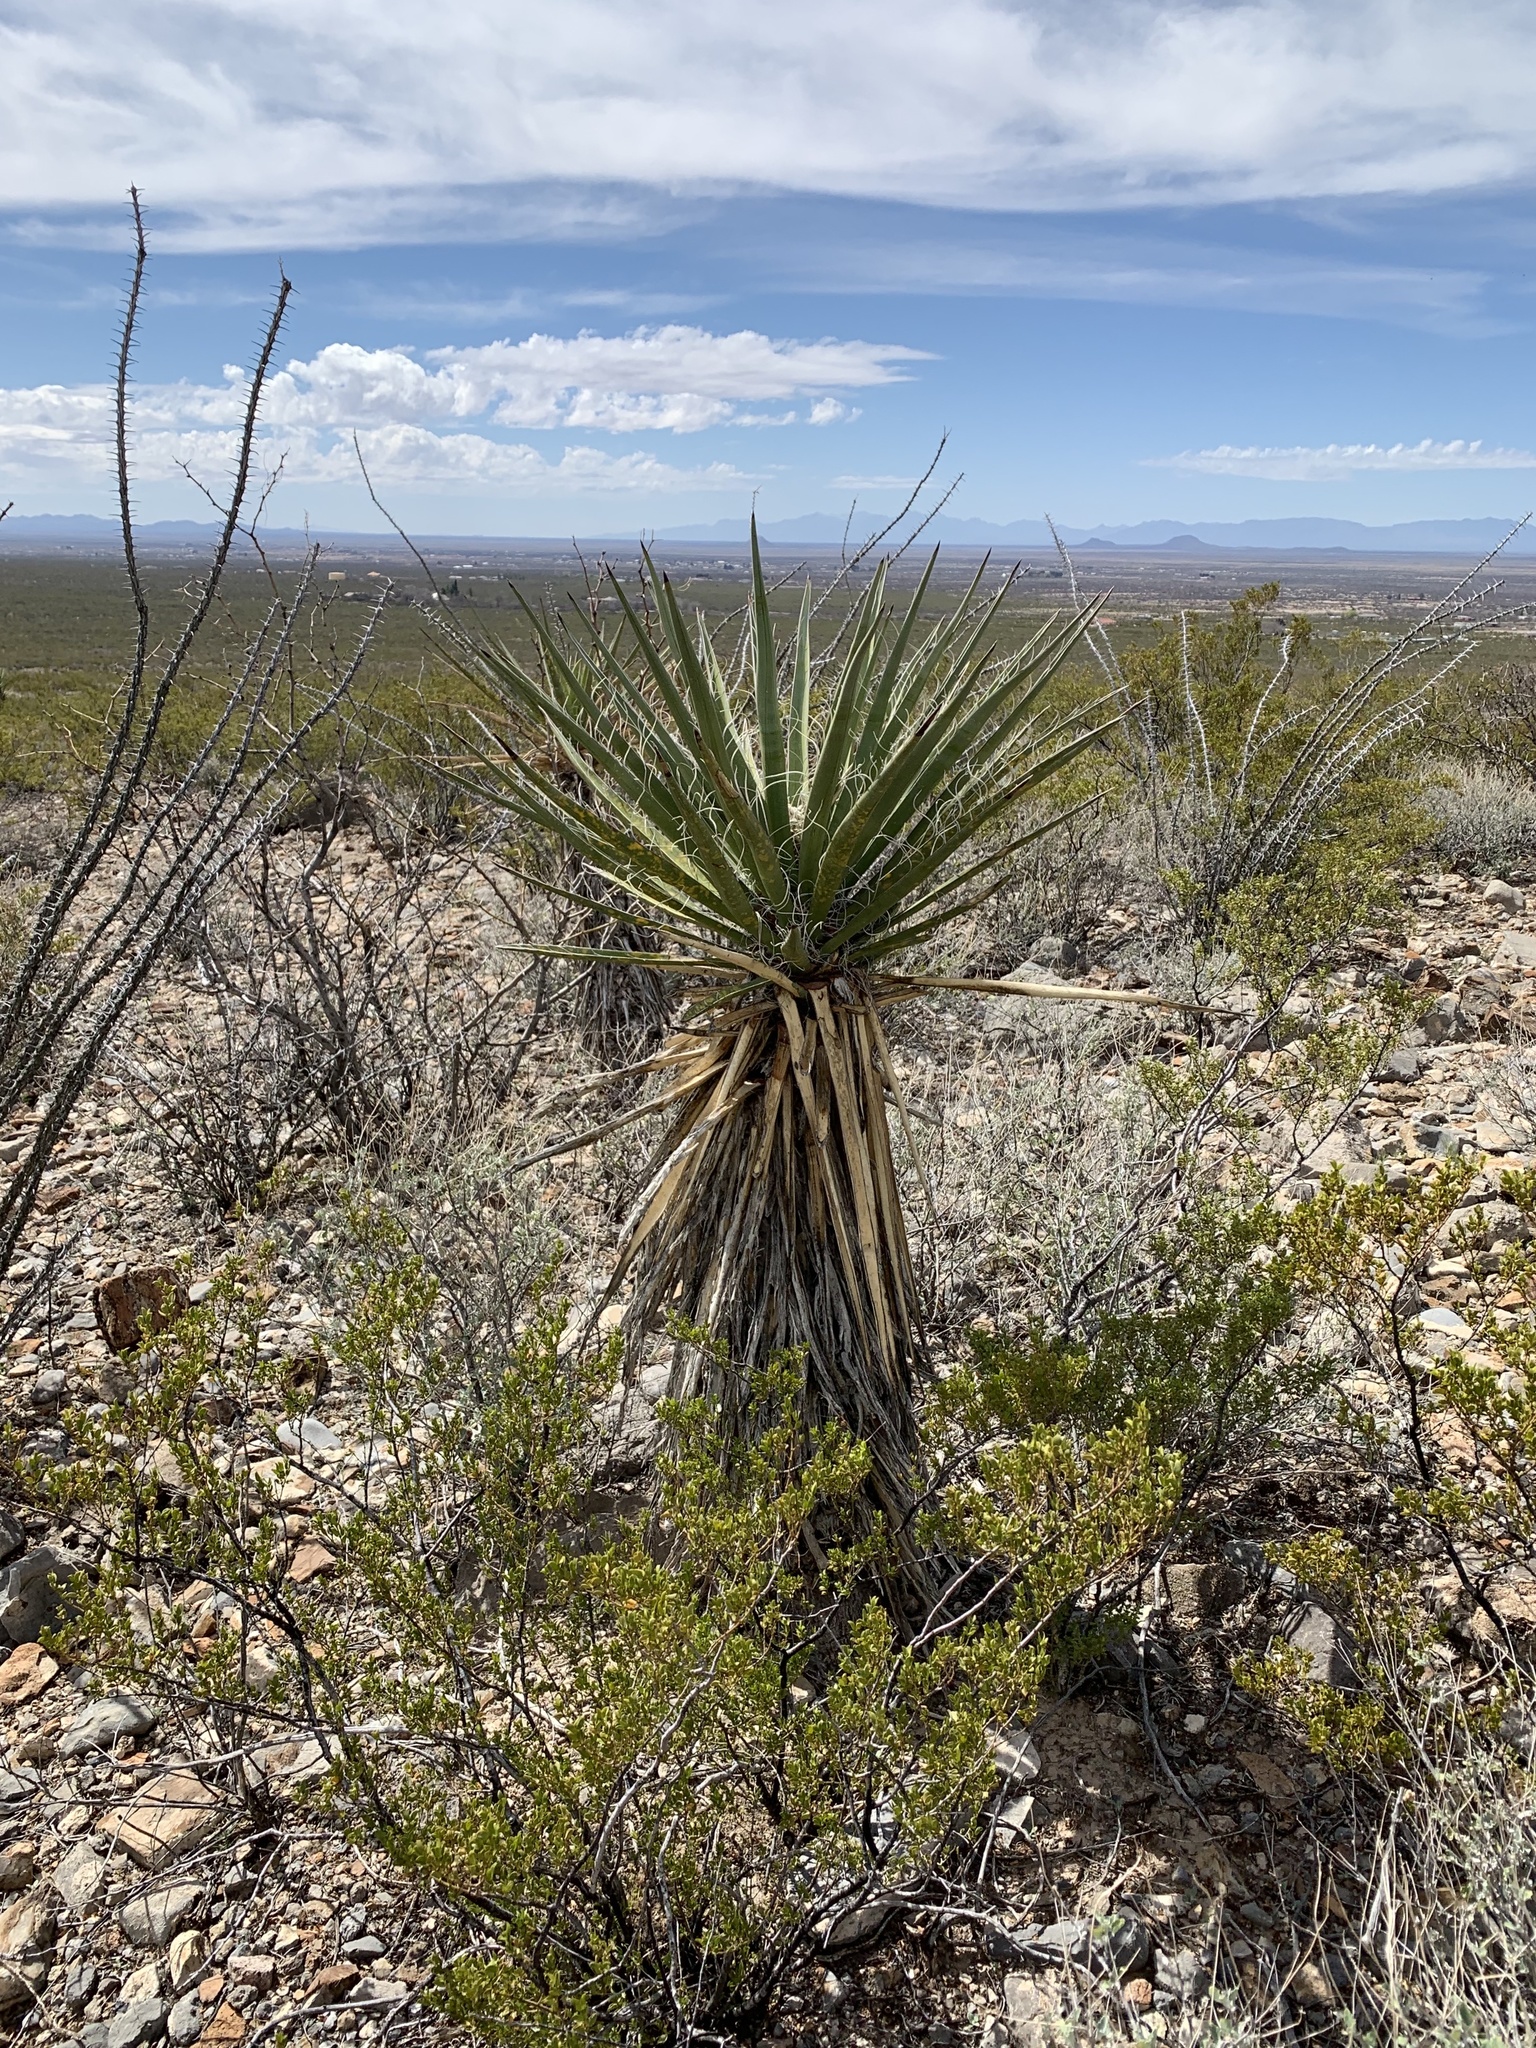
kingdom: Plantae
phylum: Tracheophyta
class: Liliopsida
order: Asparagales
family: Asparagaceae
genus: Yucca
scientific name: Yucca treculiana
